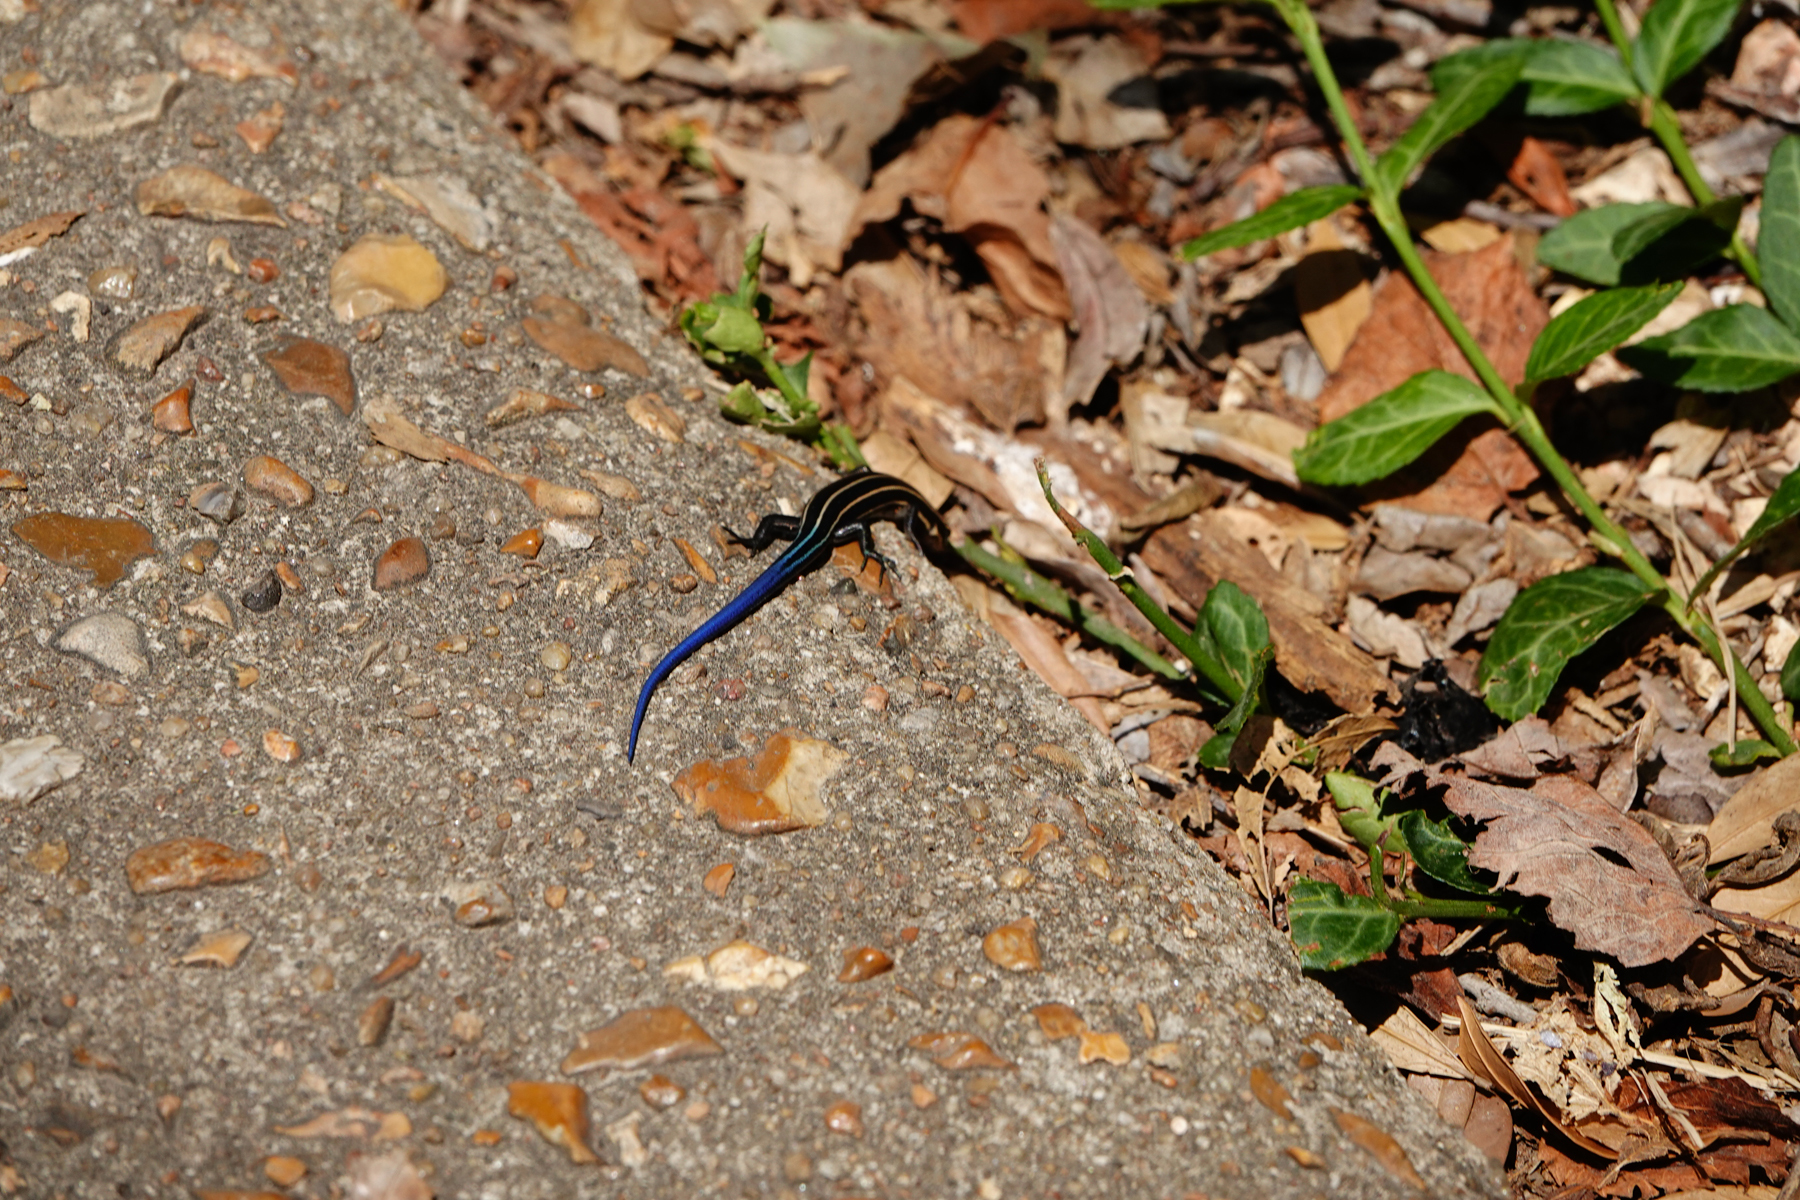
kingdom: Animalia
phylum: Chordata
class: Squamata
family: Scincidae
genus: Plestiodon
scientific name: Plestiodon fasciatus
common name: Five-lined skink
